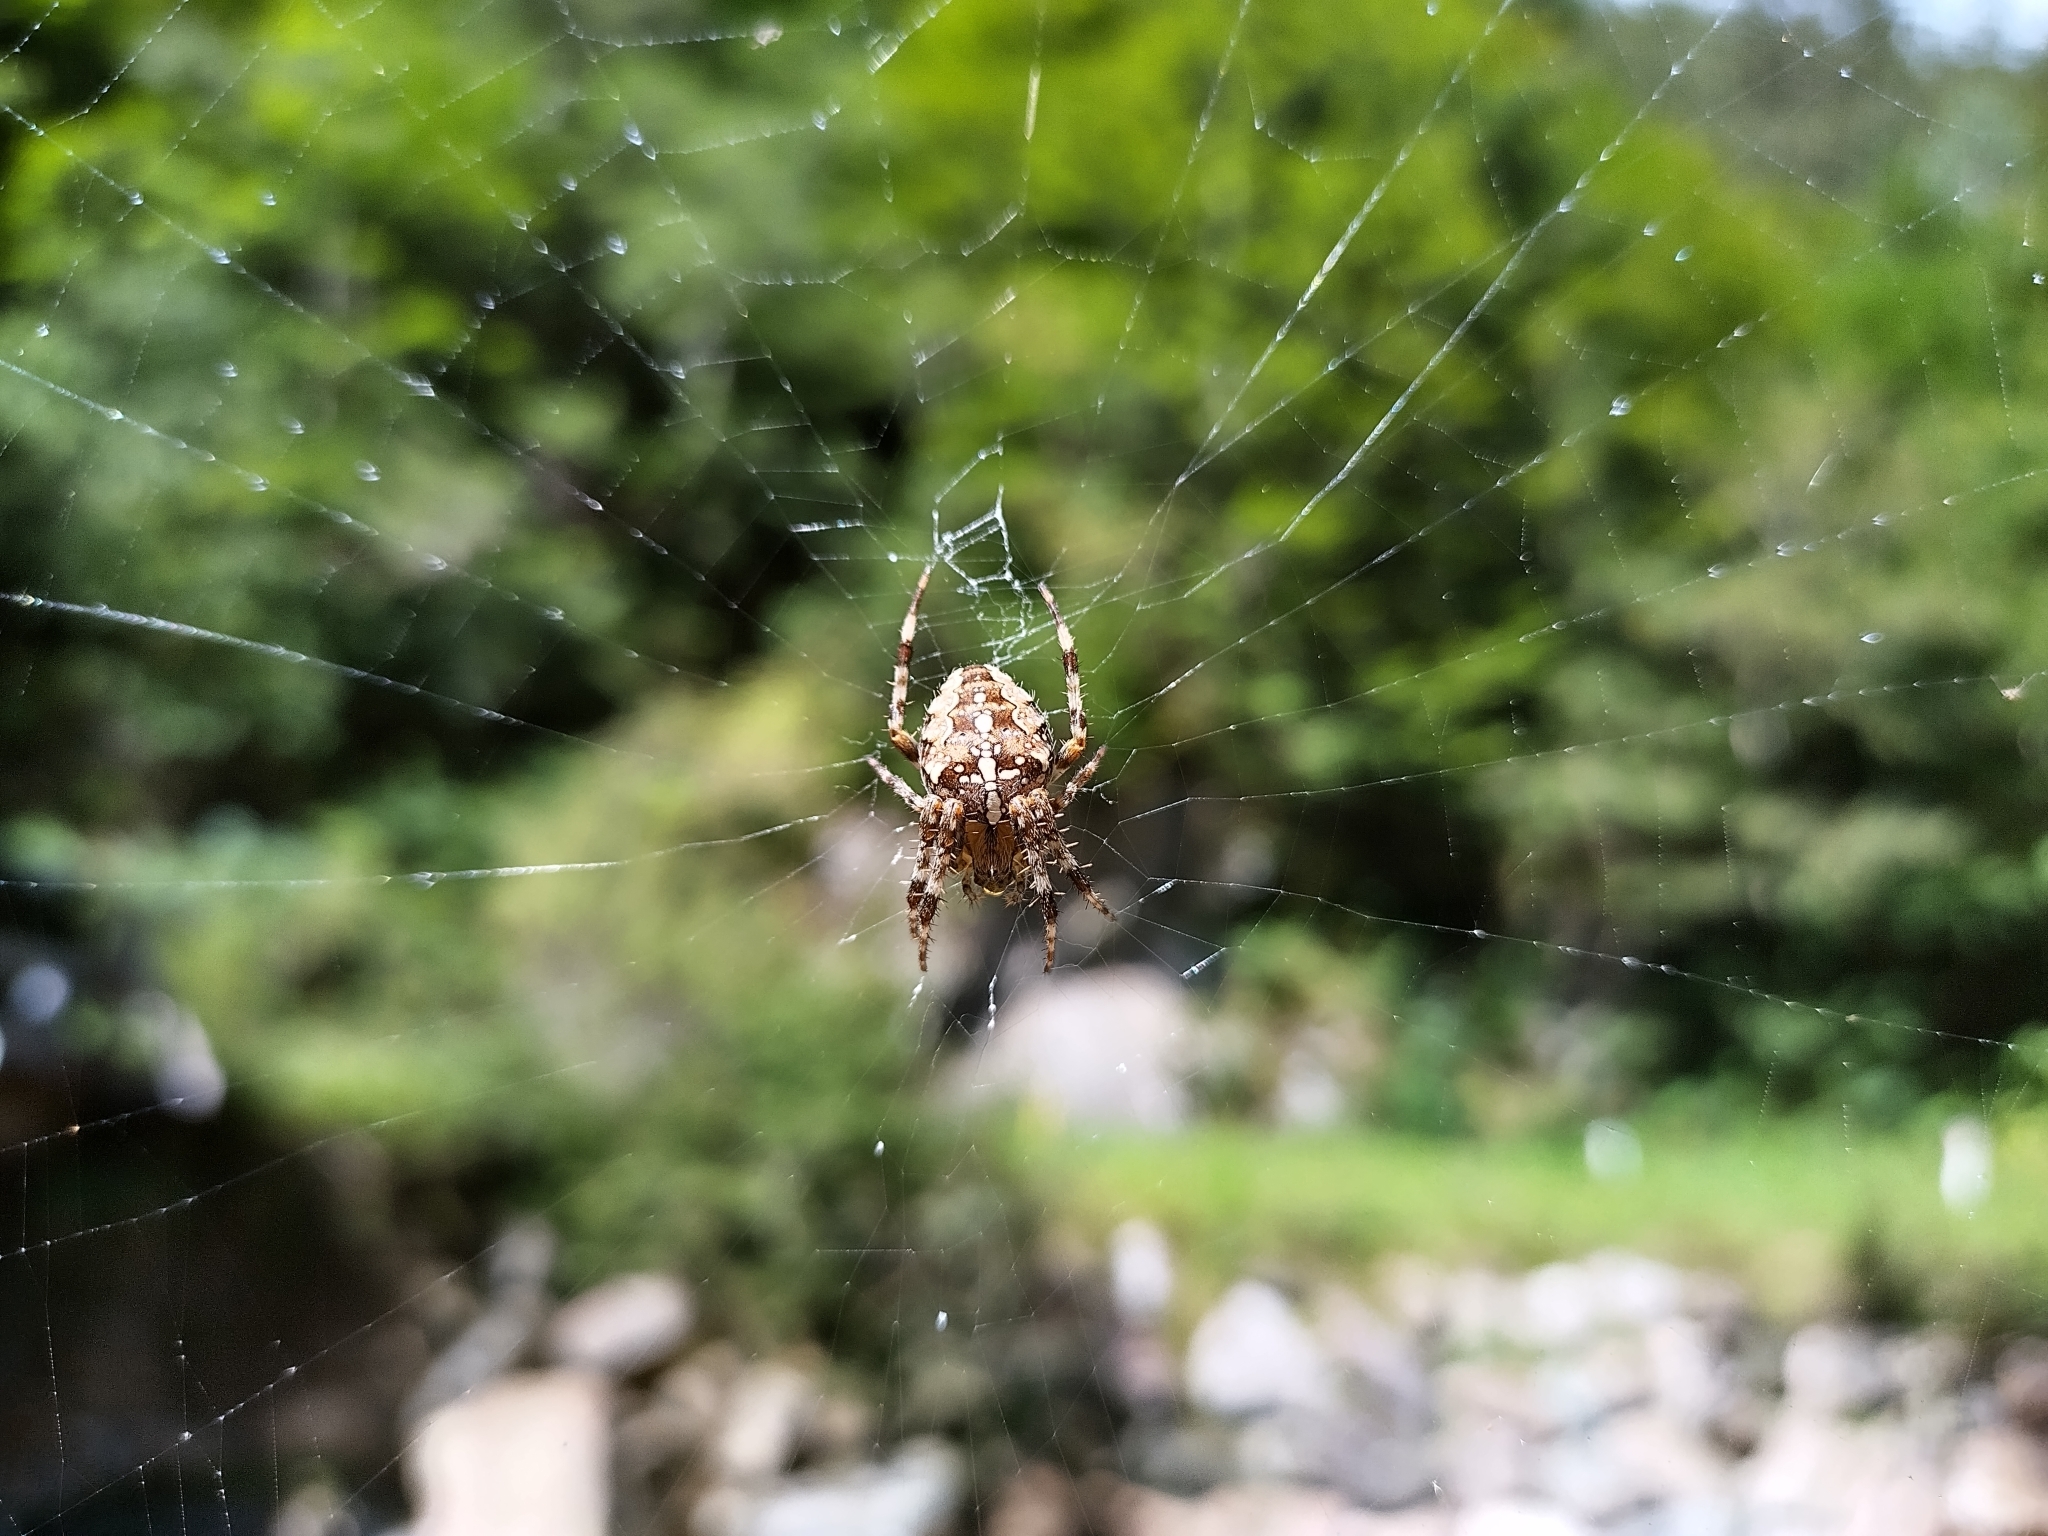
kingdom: Animalia
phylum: Arthropoda
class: Arachnida
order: Araneae
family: Araneidae
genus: Araneus
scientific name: Araneus diadematus
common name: Cross orbweaver
